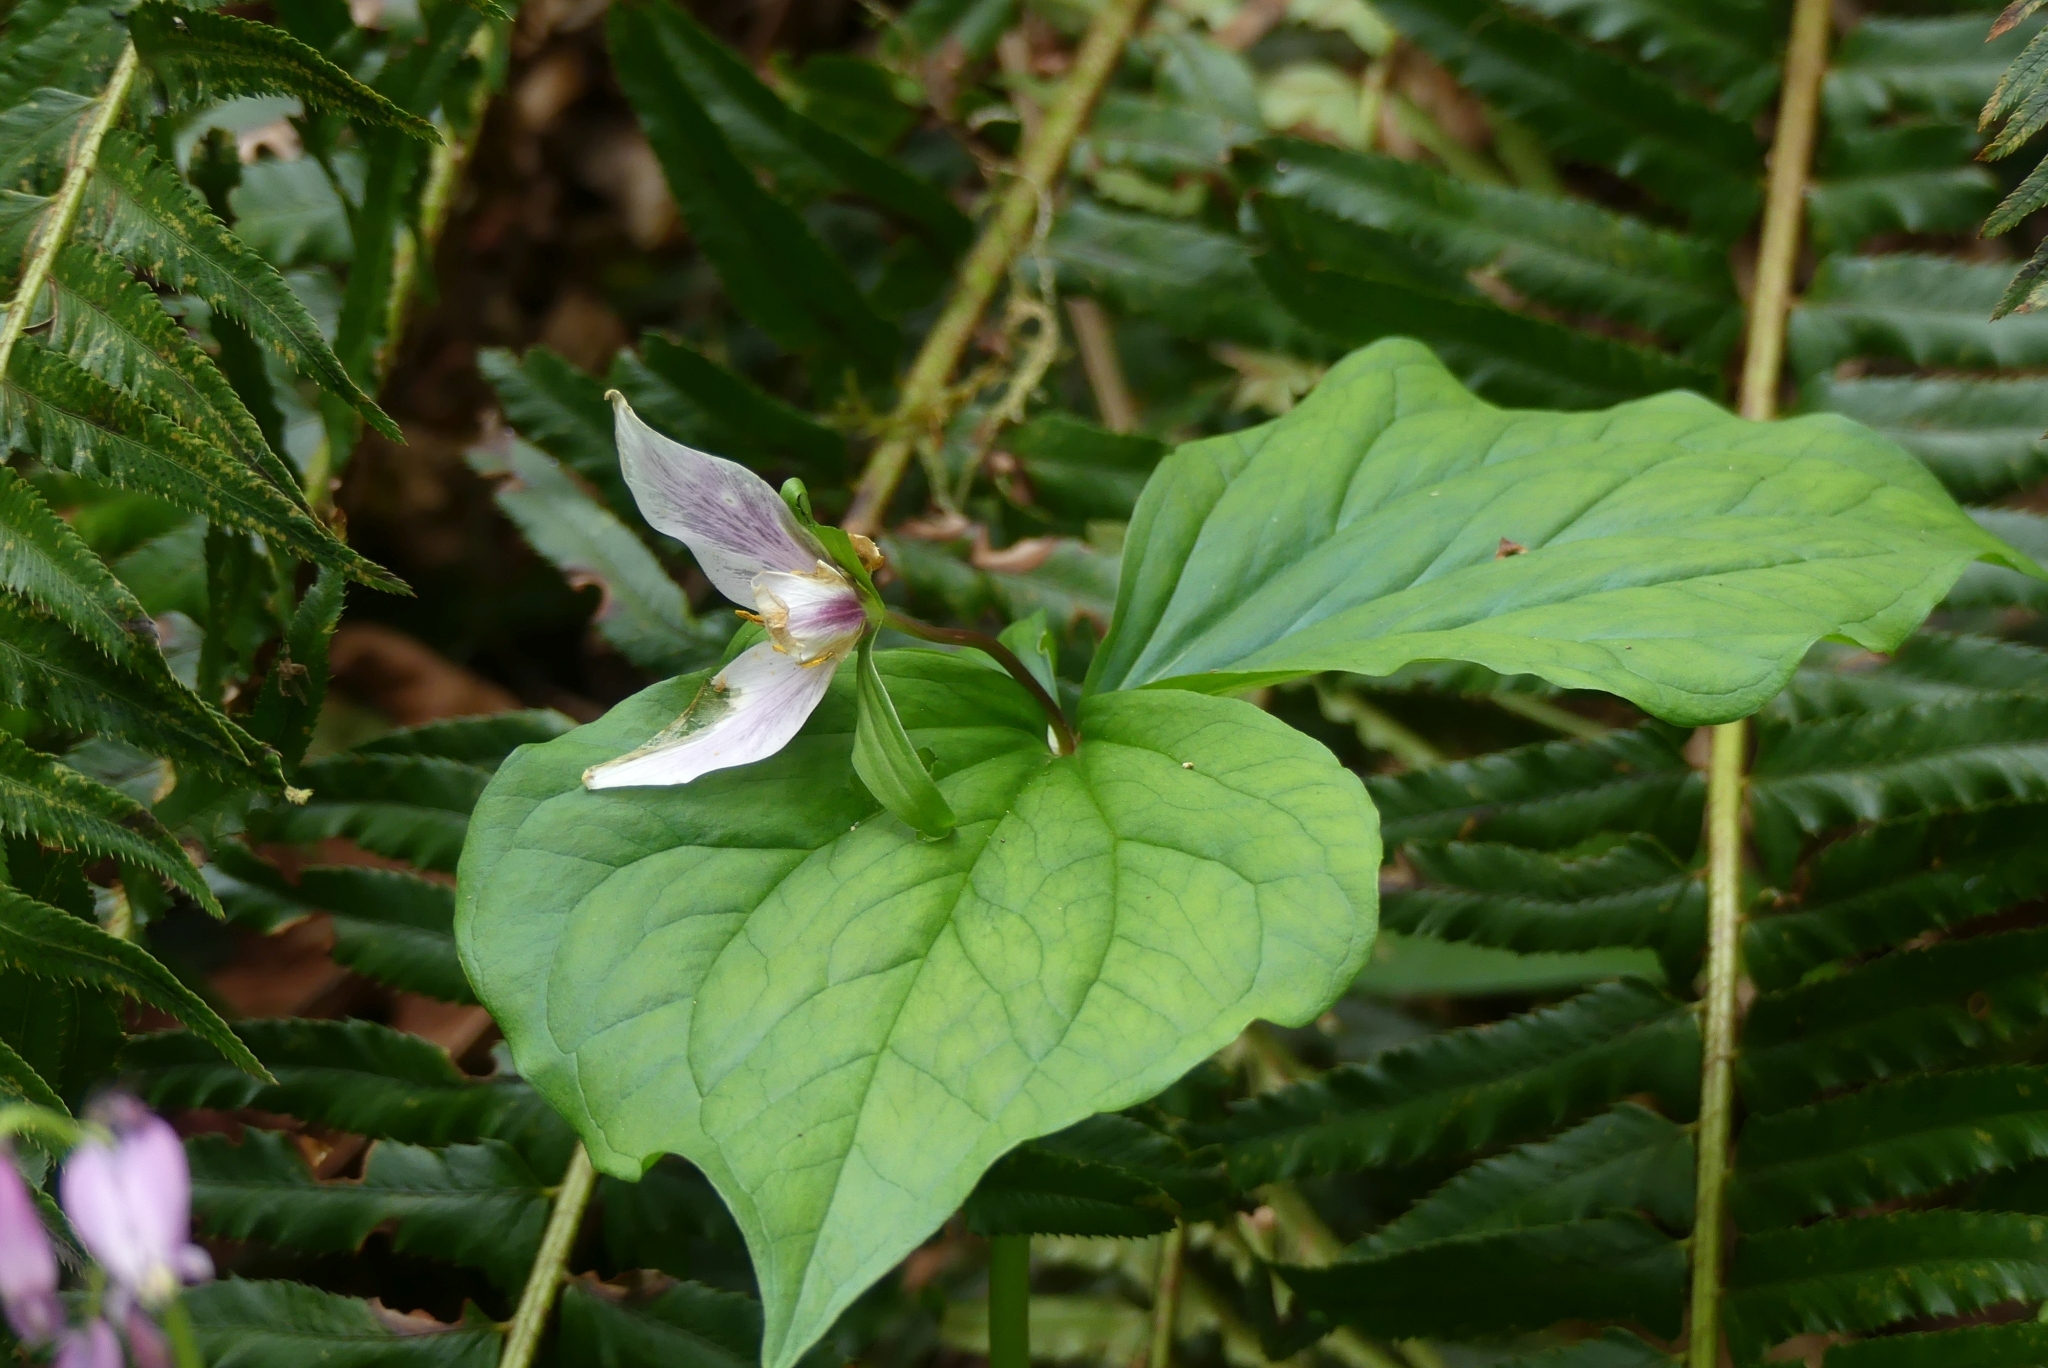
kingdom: Plantae
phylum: Tracheophyta
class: Liliopsida
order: Liliales
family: Melanthiaceae
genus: Trillium
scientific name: Trillium ovatum
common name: Pacific trillium
